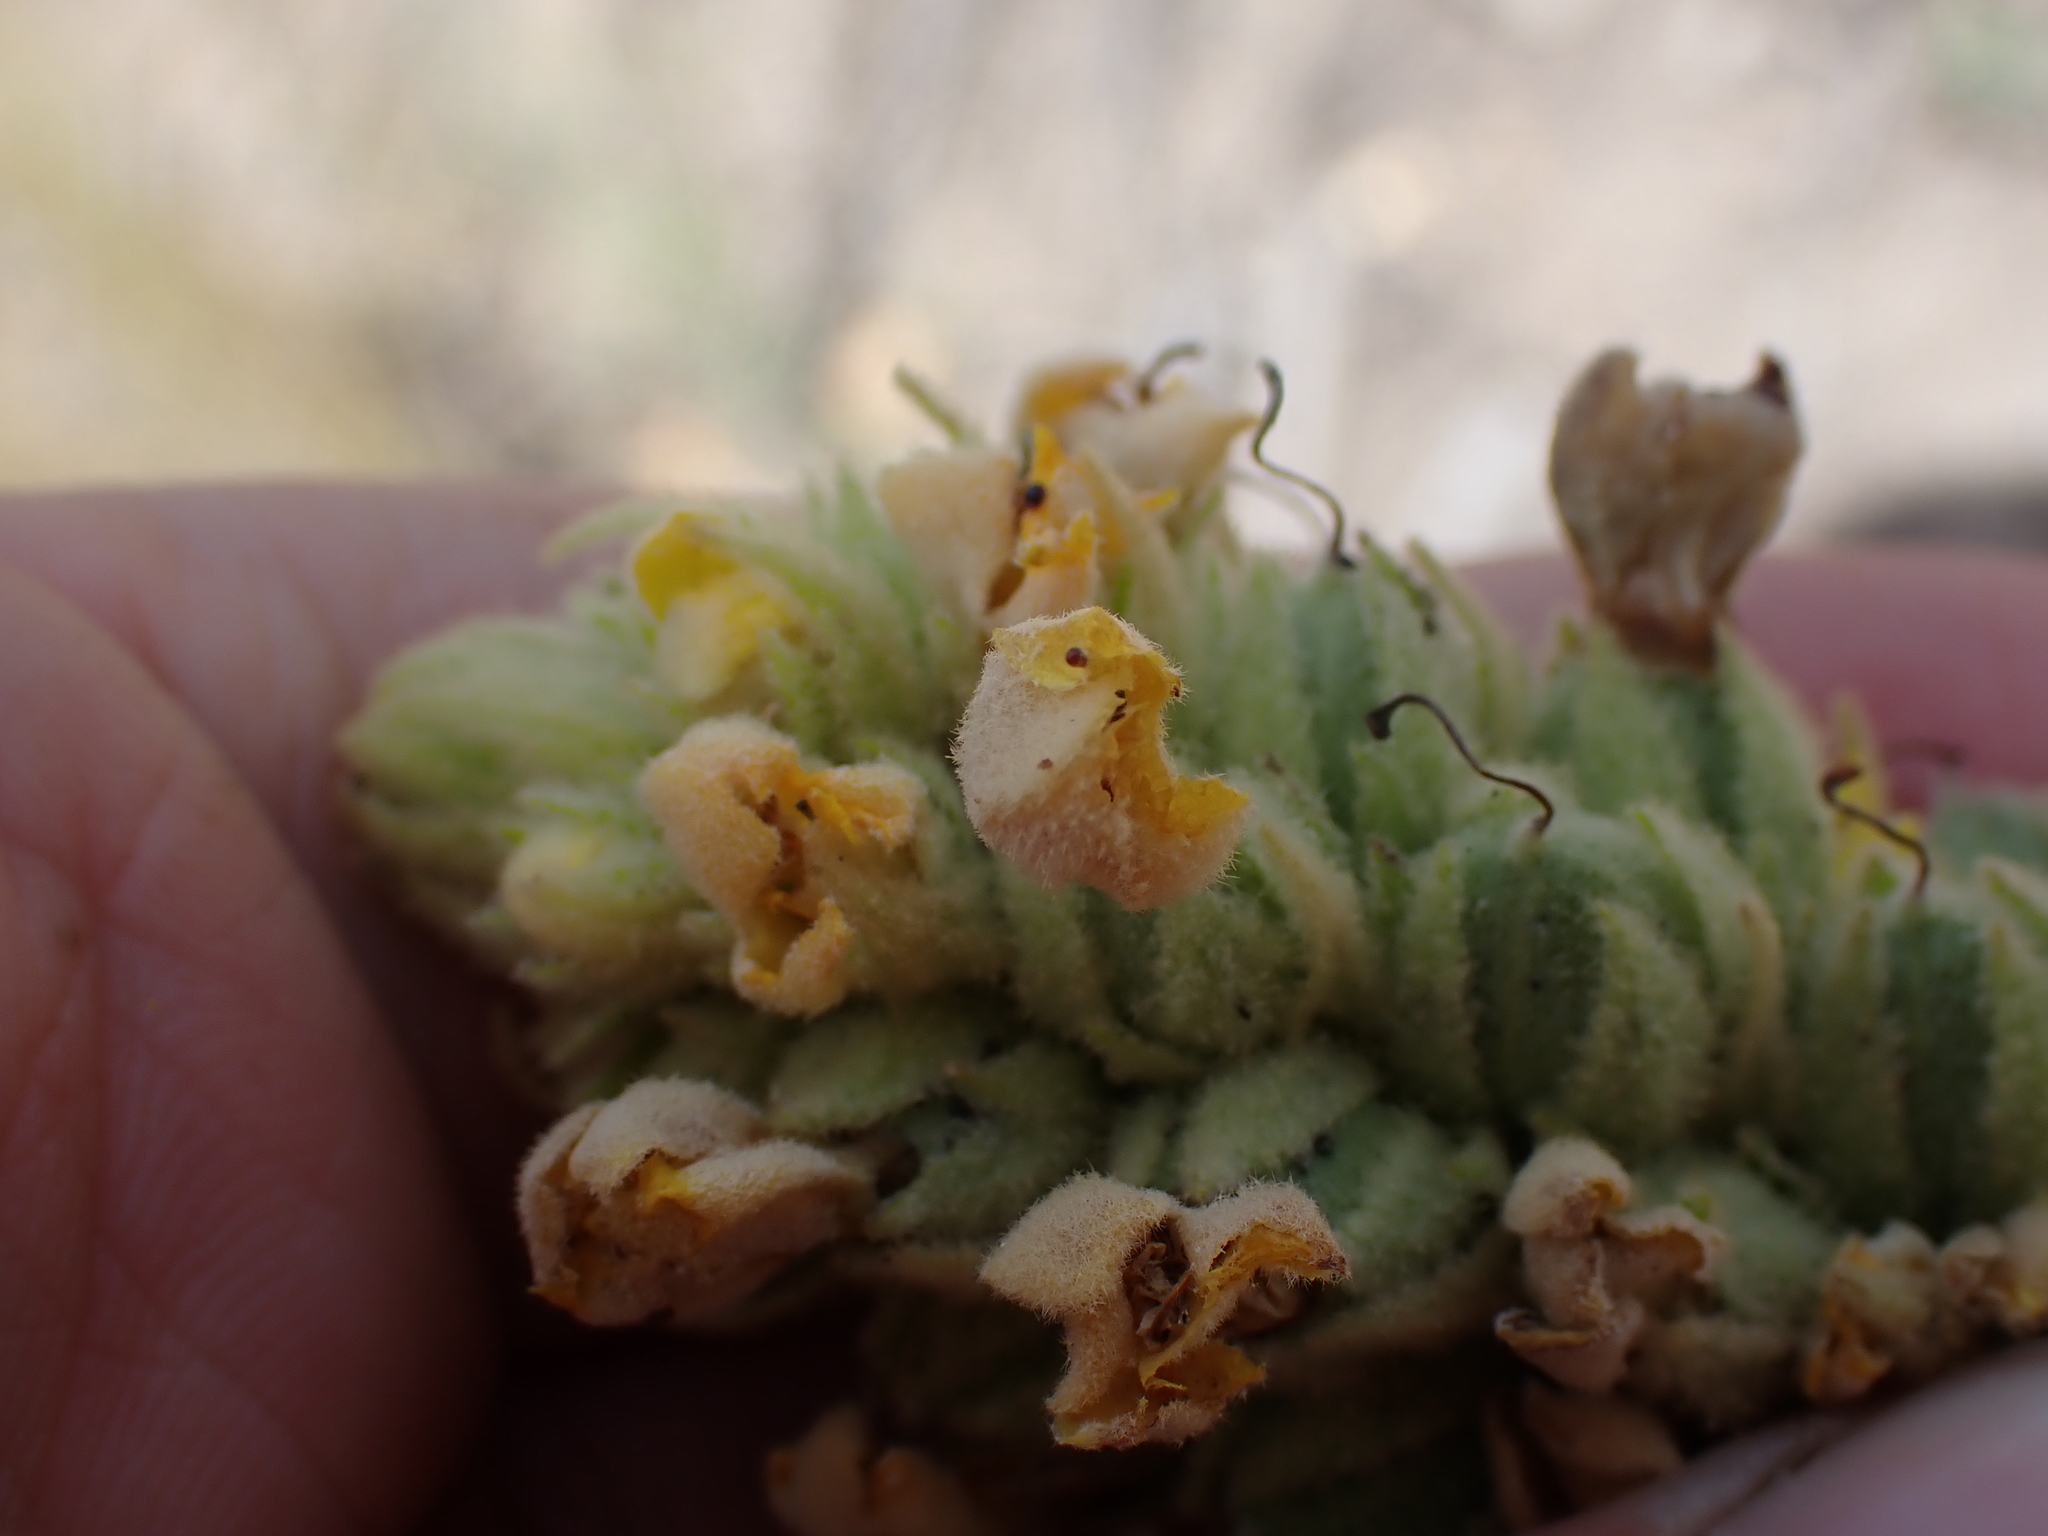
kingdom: Plantae
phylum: Tracheophyta
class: Magnoliopsida
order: Lamiales
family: Scrophulariaceae
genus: Verbascum
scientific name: Verbascum thapsus
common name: Common mullein
